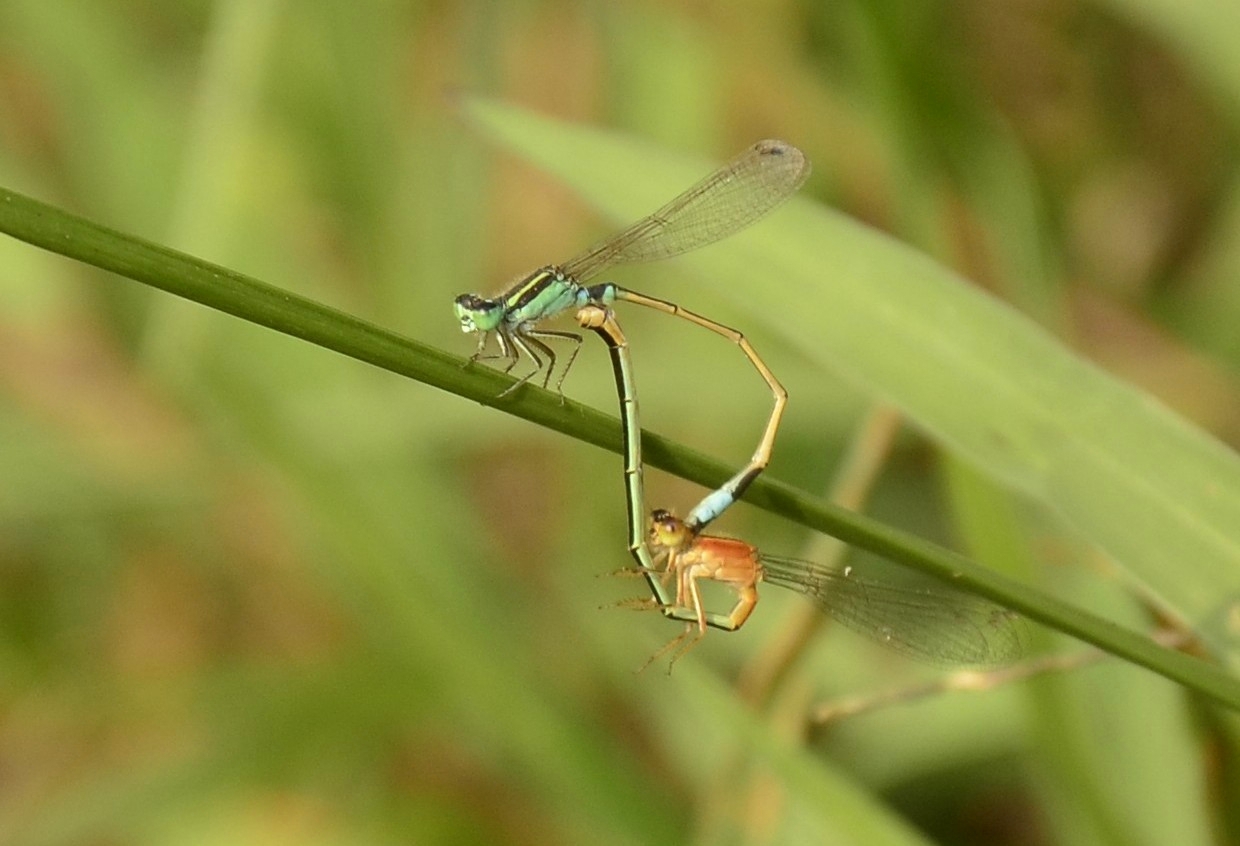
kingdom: Animalia
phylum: Arthropoda
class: Insecta
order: Odonata
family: Coenagrionidae
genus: Ischnura
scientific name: Ischnura senegalensis
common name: Tropical bluetail
